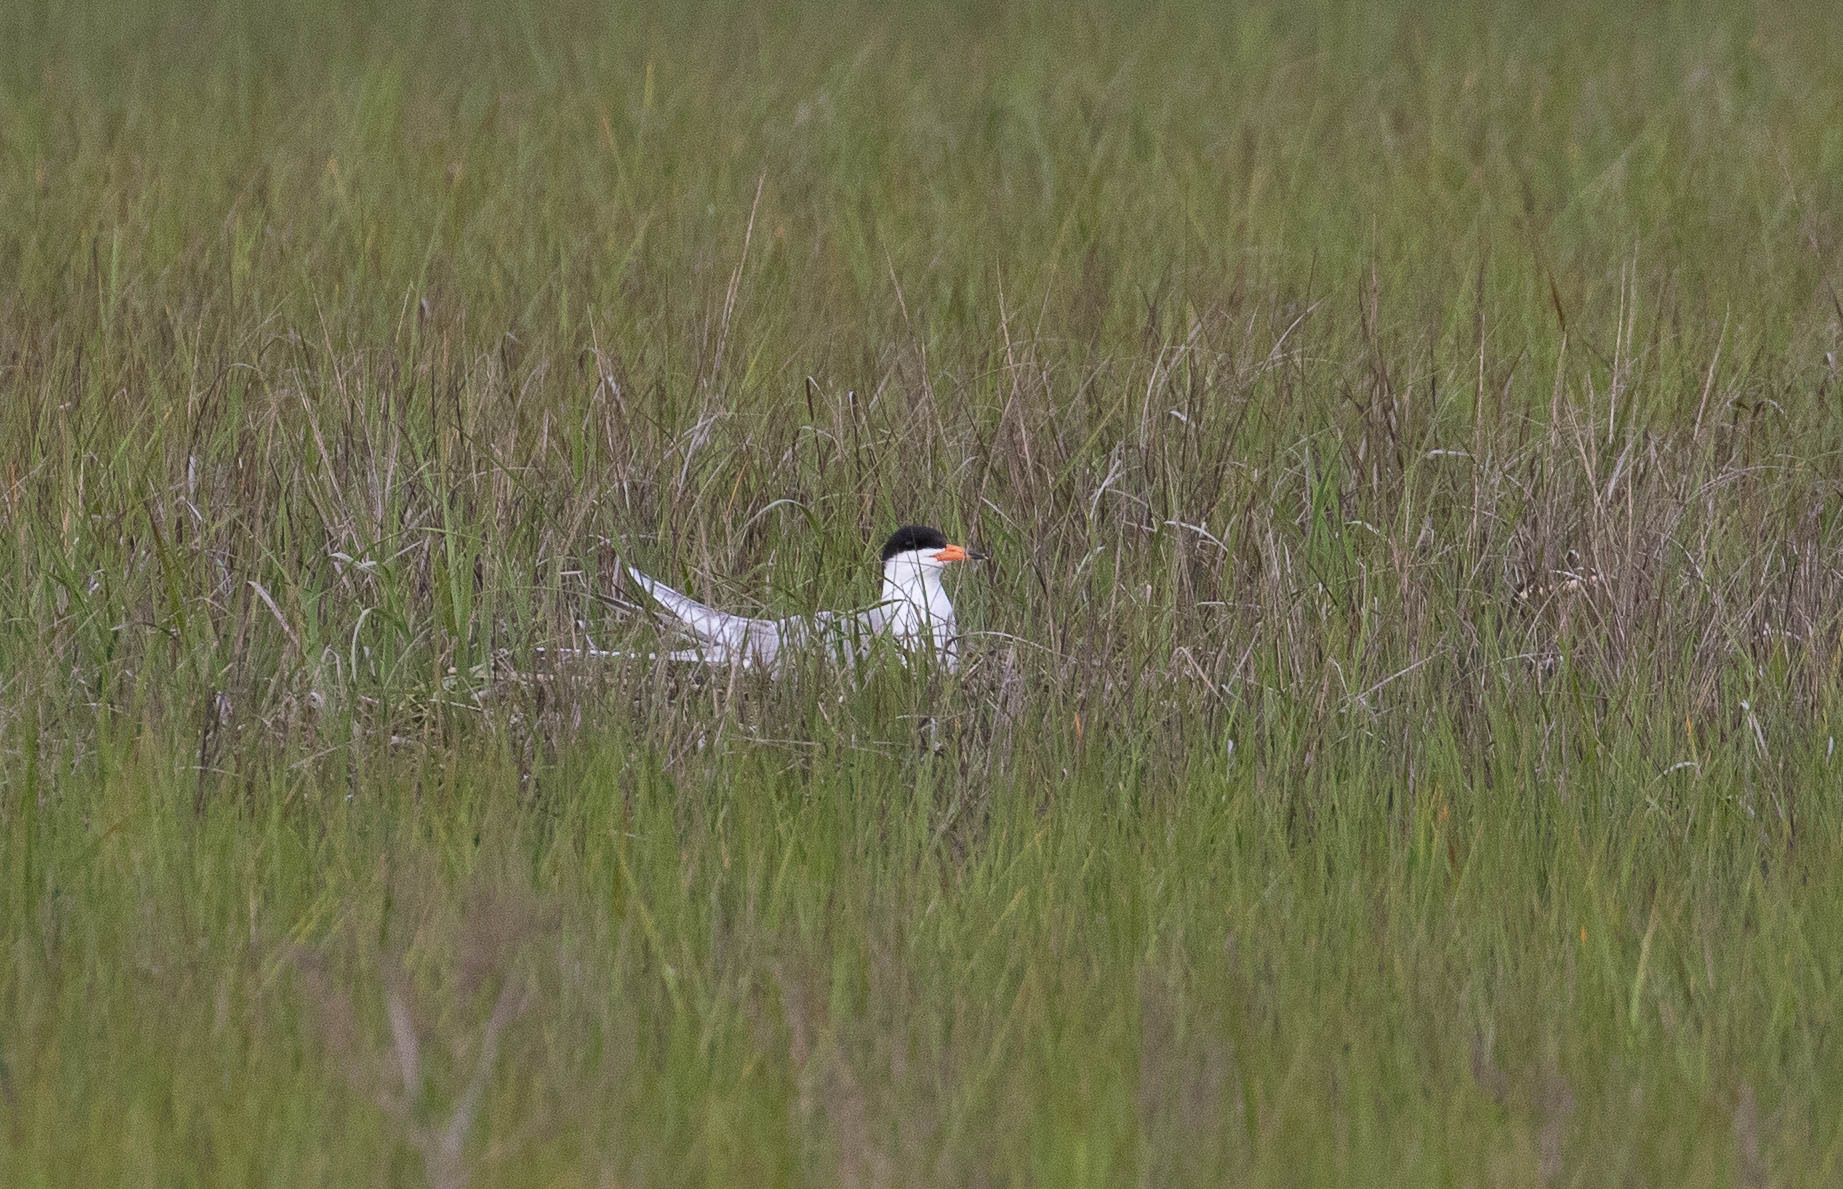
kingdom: Animalia
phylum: Chordata
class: Aves
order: Charadriiformes
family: Laridae
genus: Sterna
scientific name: Sterna forsteri
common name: Forster's tern
